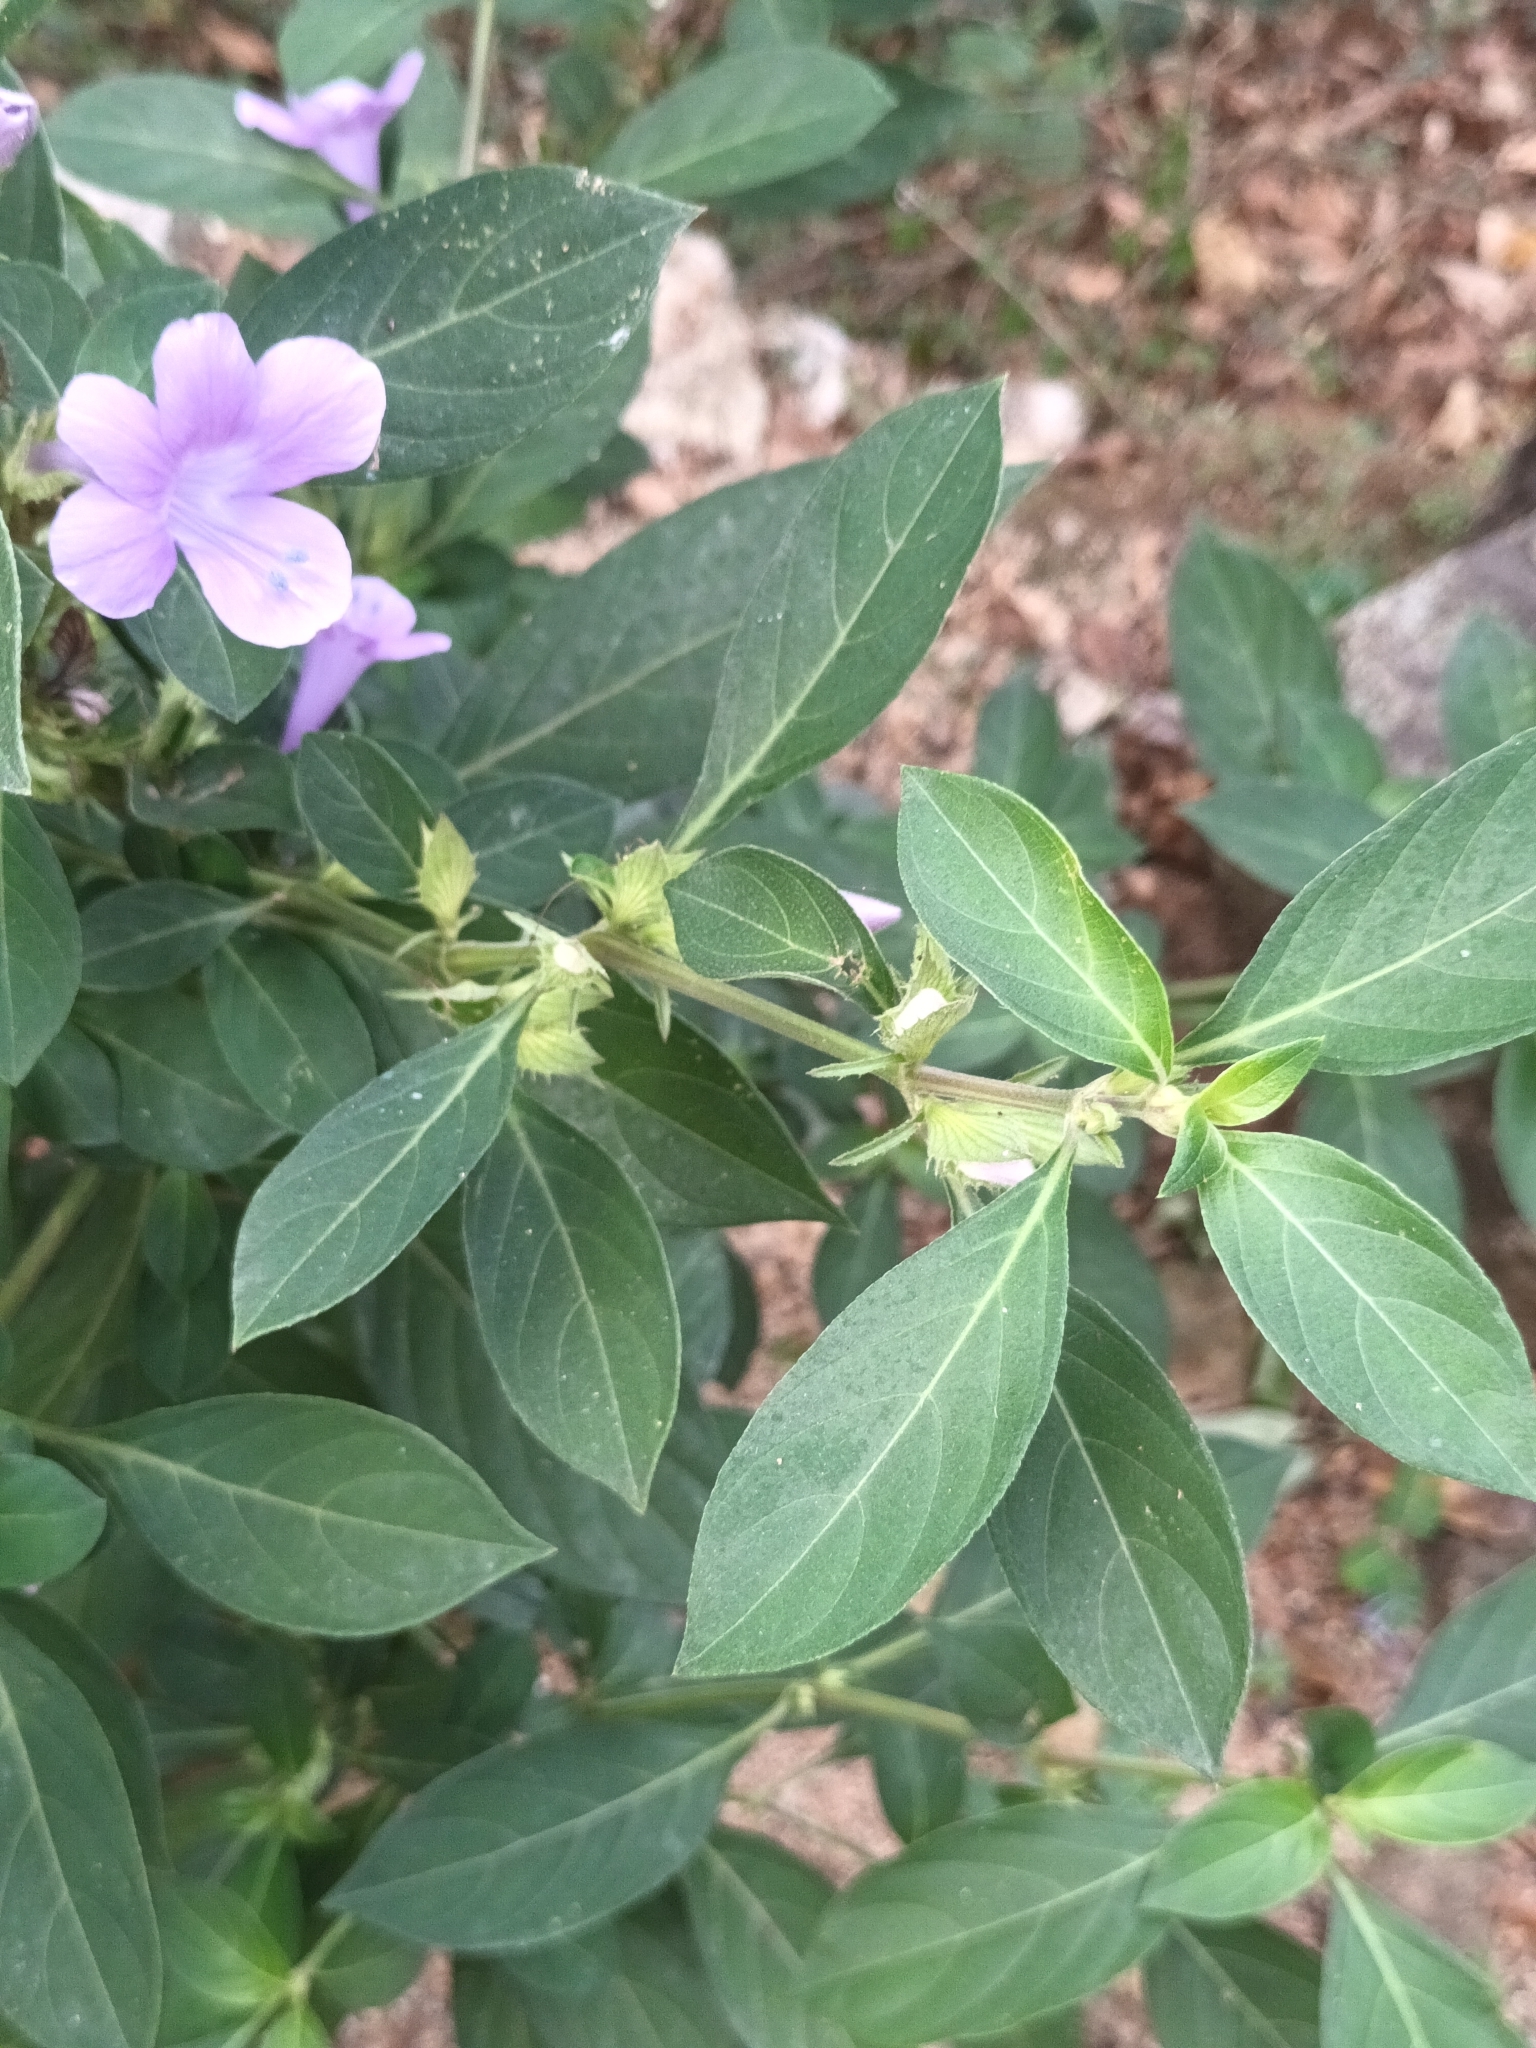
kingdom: Plantae
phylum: Tracheophyta
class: Magnoliopsida
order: Lamiales
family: Acanthaceae
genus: Barleria
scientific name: Barleria cristata
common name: Crested philippine violet
